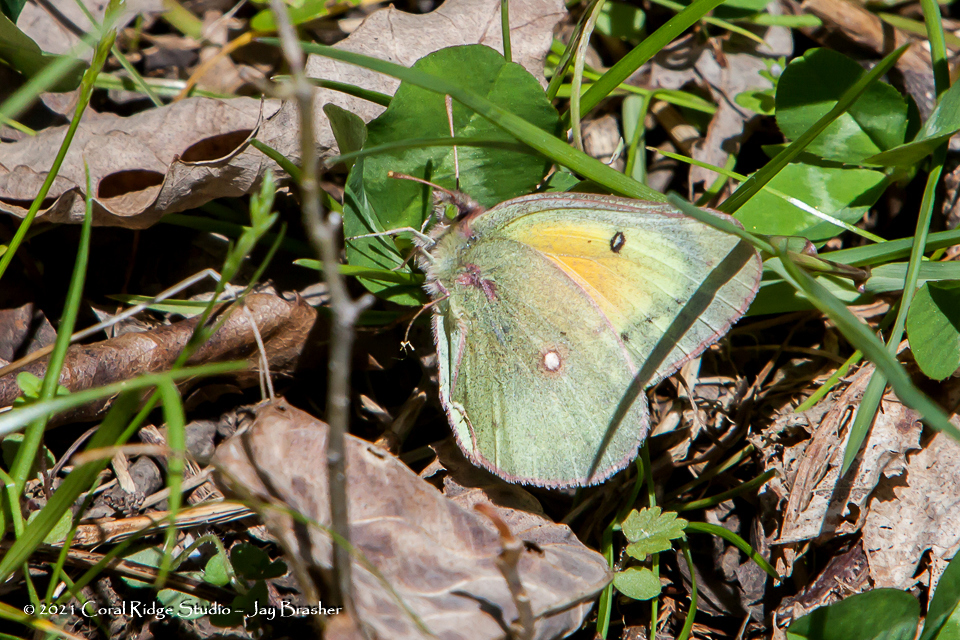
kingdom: Animalia
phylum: Arthropoda
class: Insecta
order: Lepidoptera
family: Pieridae
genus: Colias
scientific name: Colias eurytheme
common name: Alfalfa butterfly
